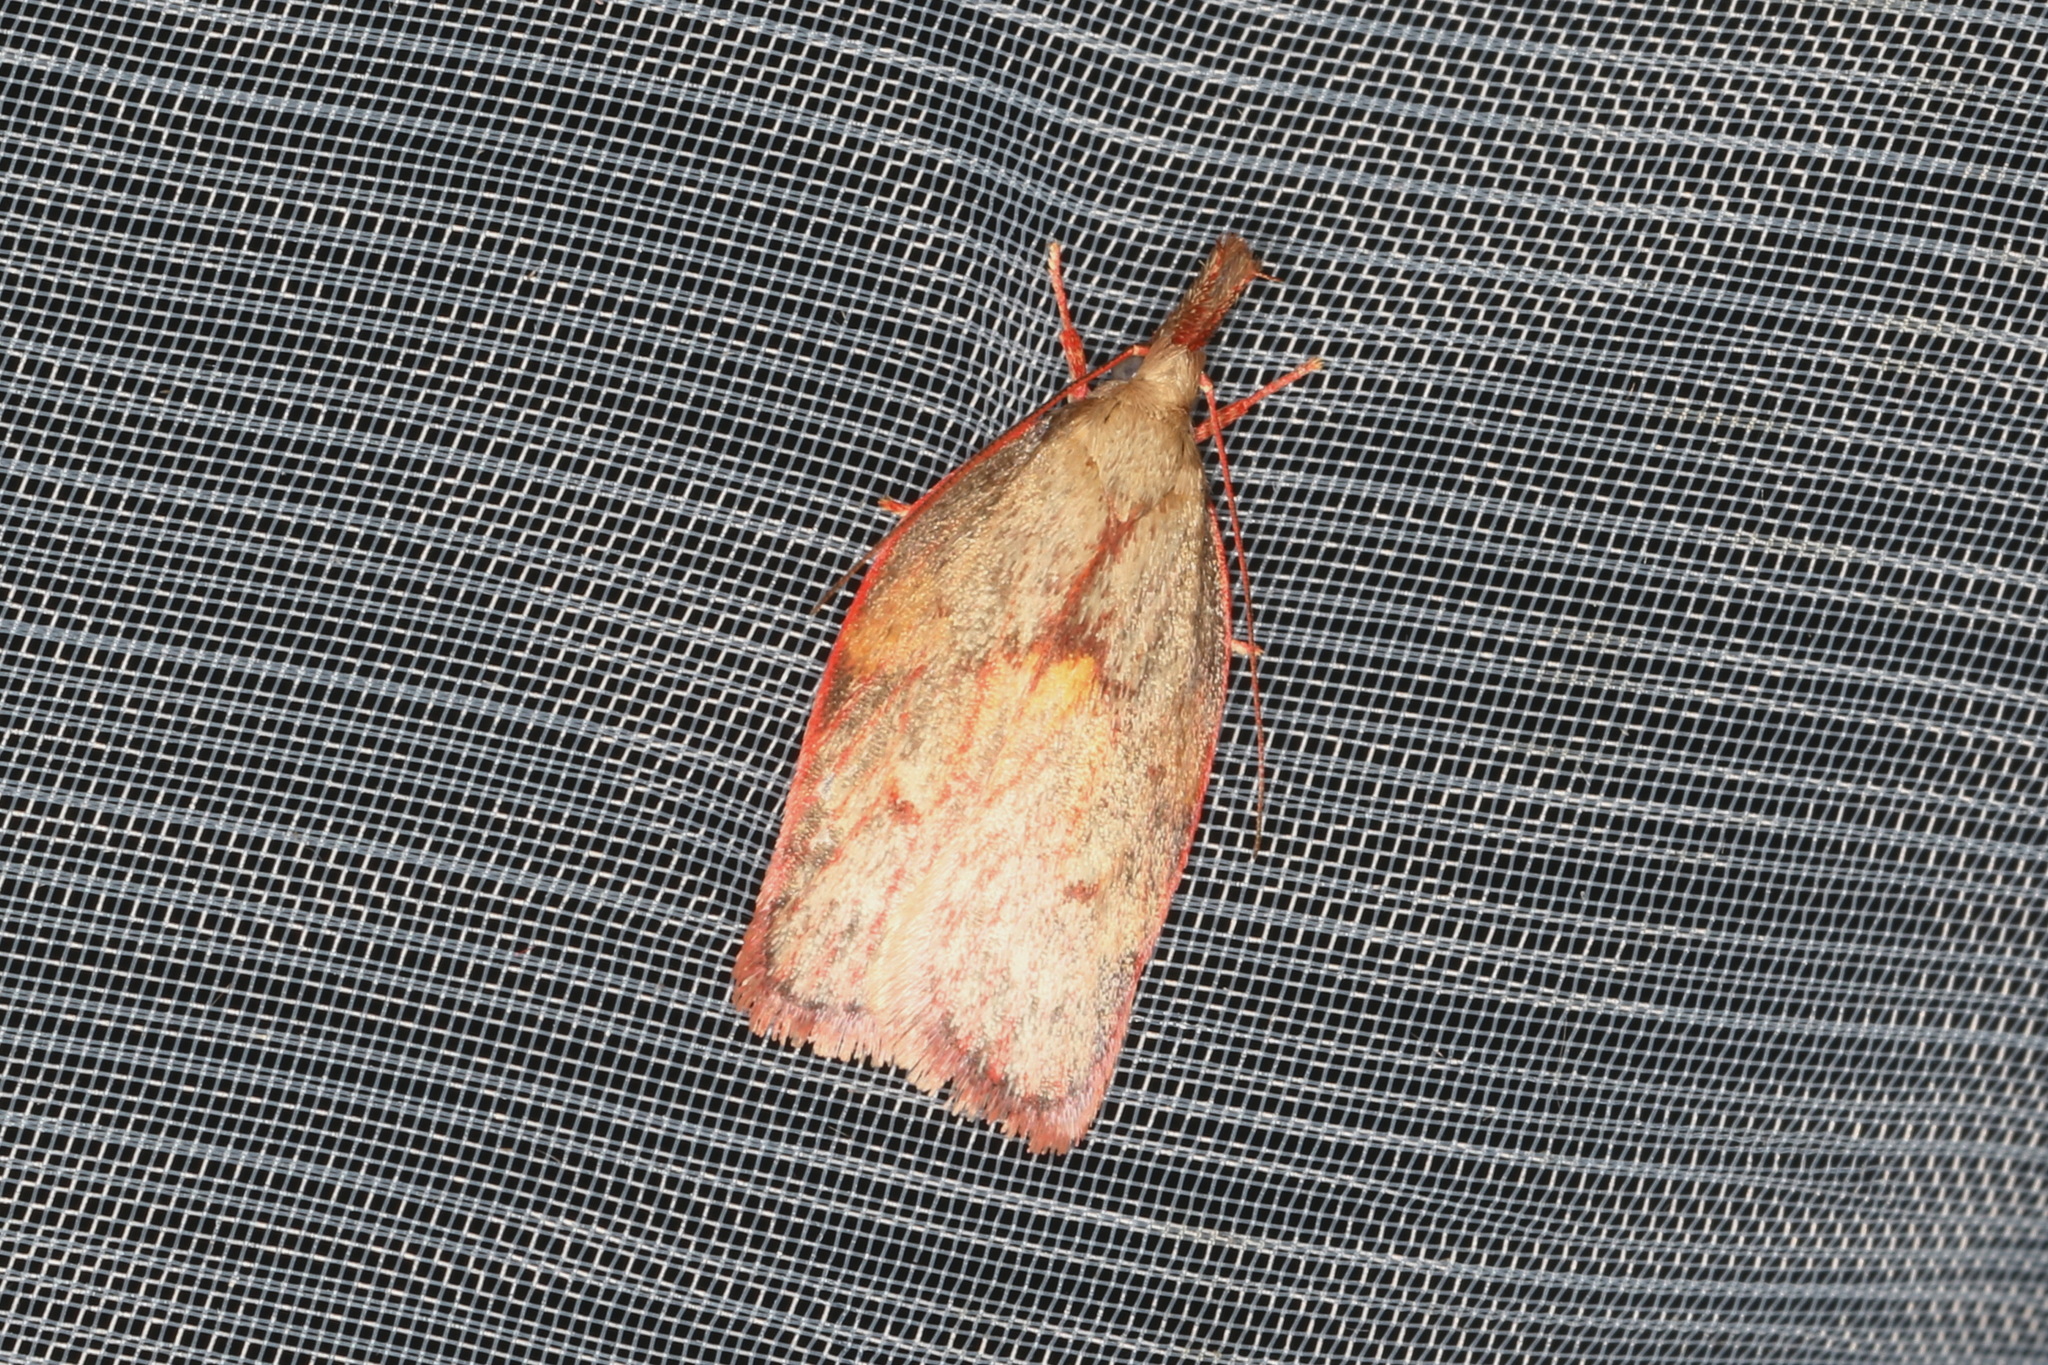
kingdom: Animalia
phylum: Arthropoda
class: Insecta
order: Lepidoptera
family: Depressariidae
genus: Enchocrates
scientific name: Enchocrates glaucopis
